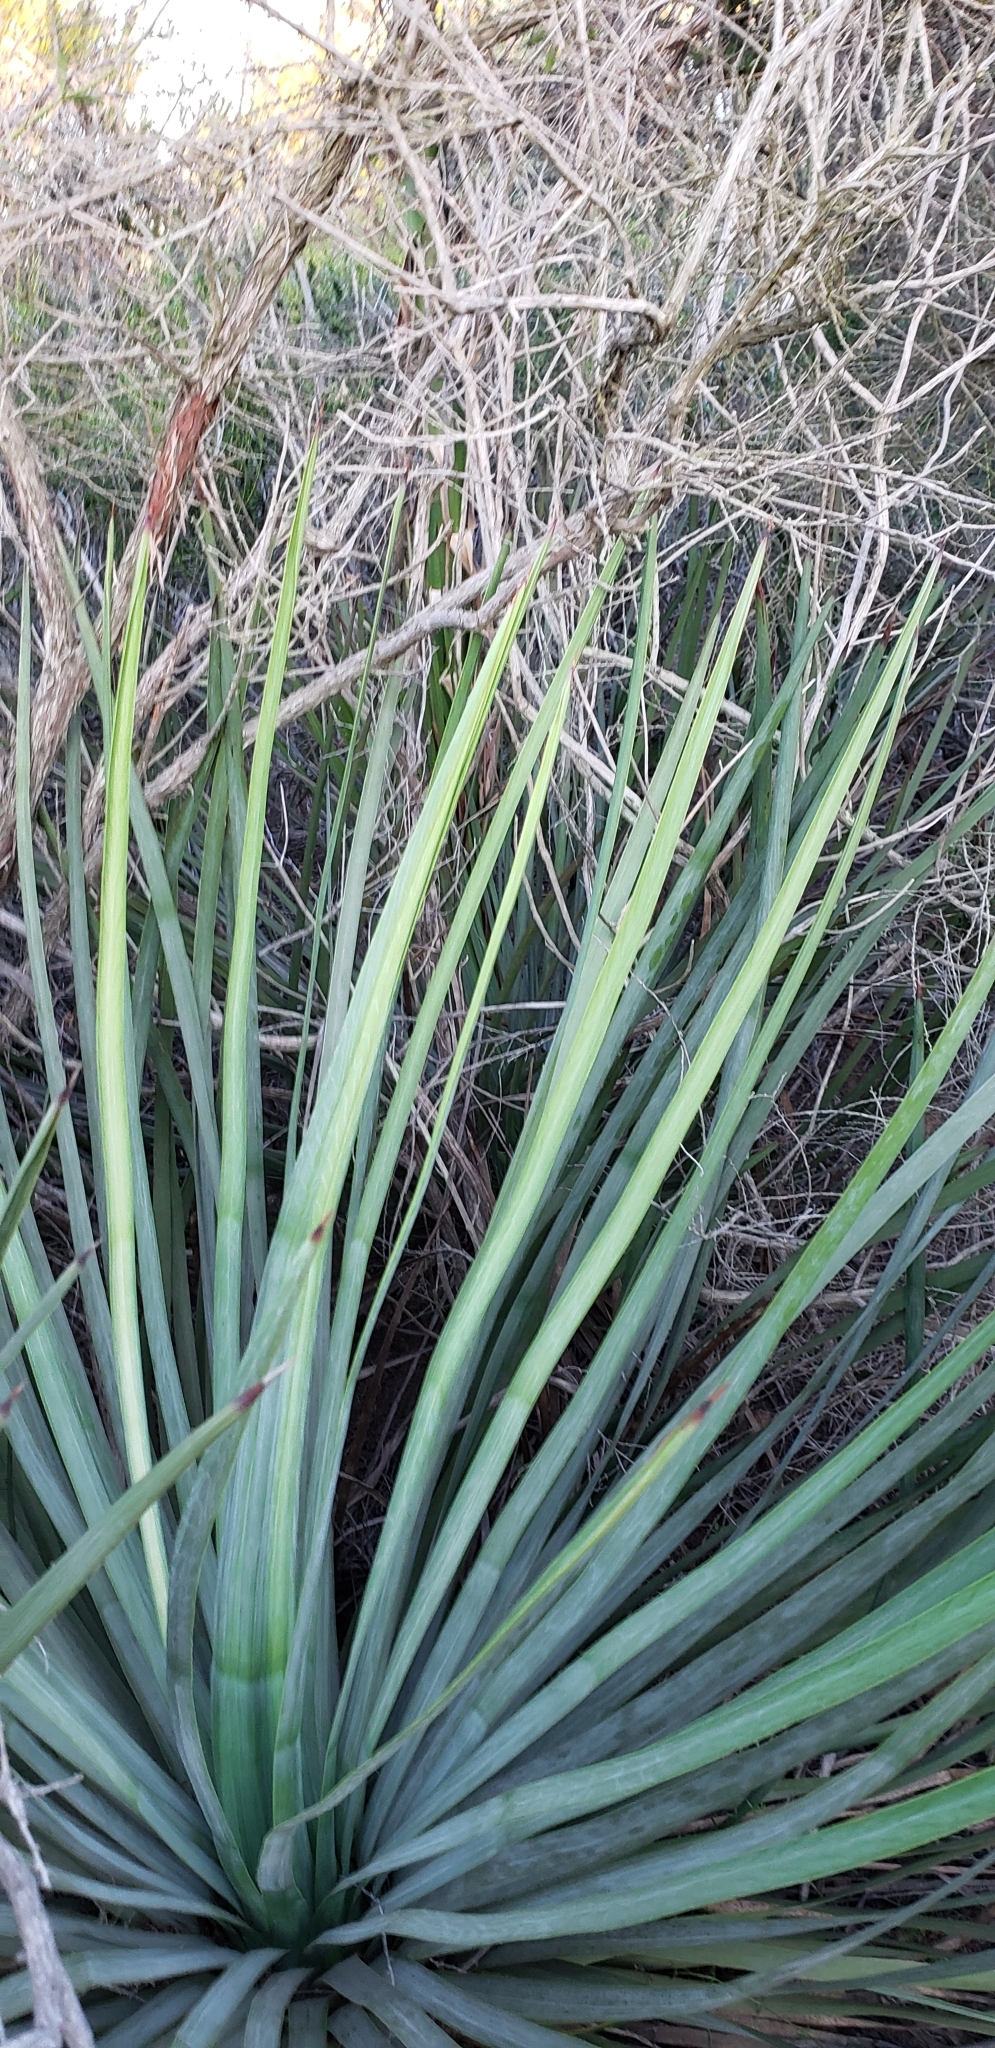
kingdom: Plantae
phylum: Tracheophyta
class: Liliopsida
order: Asparagales
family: Asparagaceae
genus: Hesperoyucca
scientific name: Hesperoyucca whipplei
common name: Our lord's-candle
